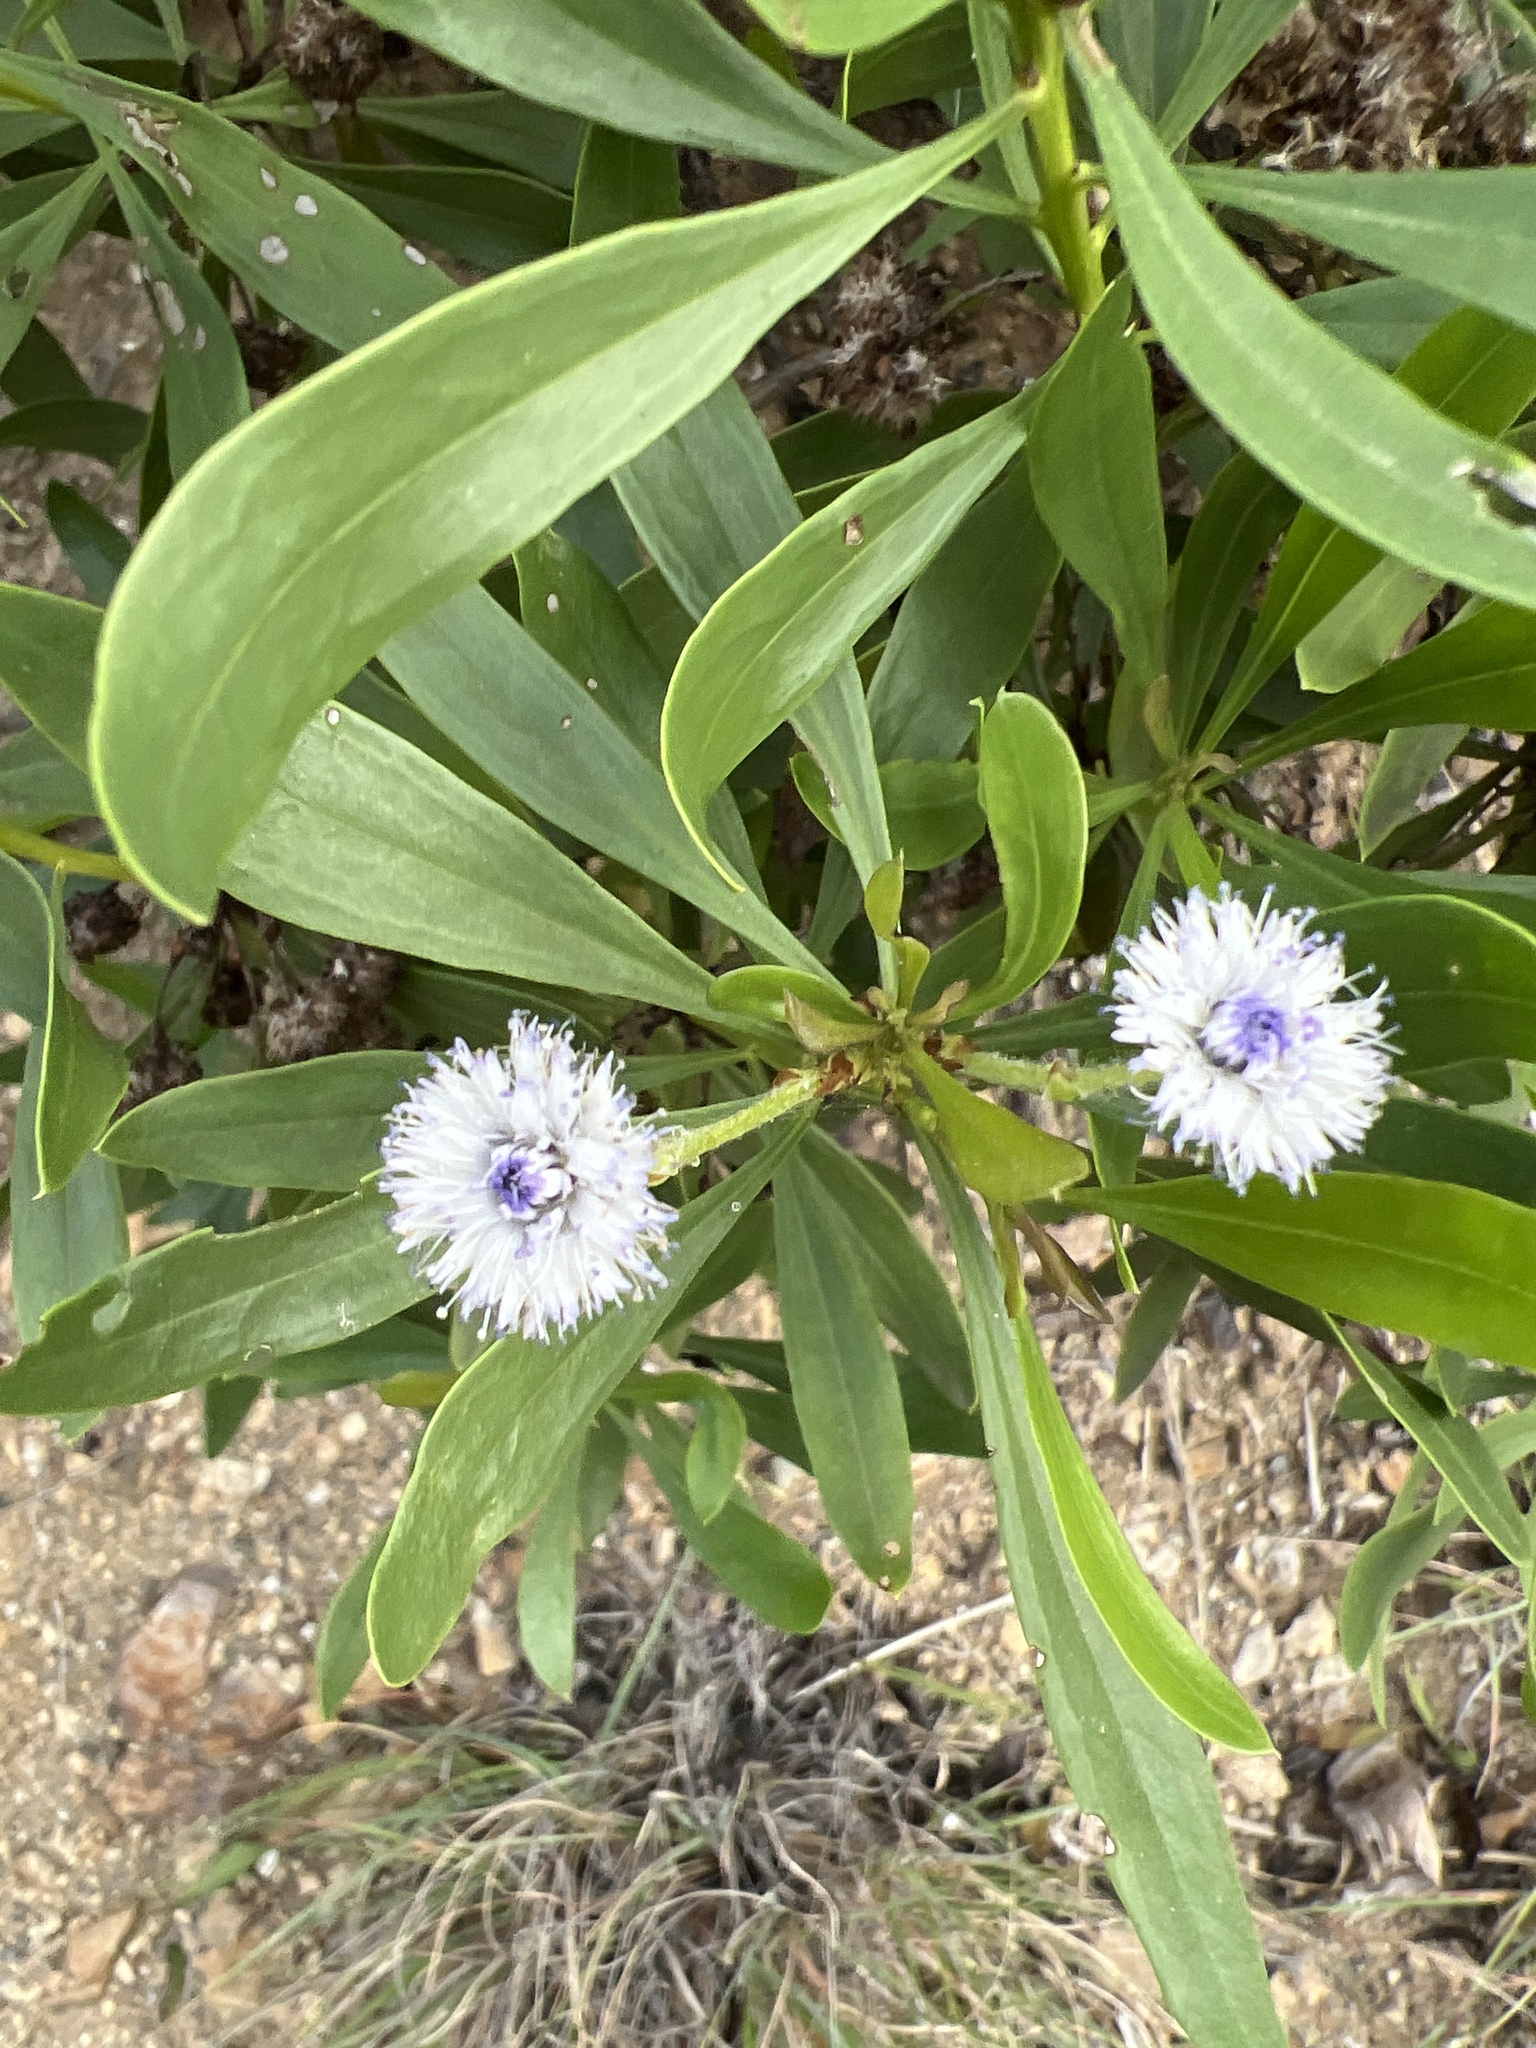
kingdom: Plantae
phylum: Tracheophyta
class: Magnoliopsida
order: Lamiales
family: Plantaginaceae
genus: Globularia
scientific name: Globularia salicina
